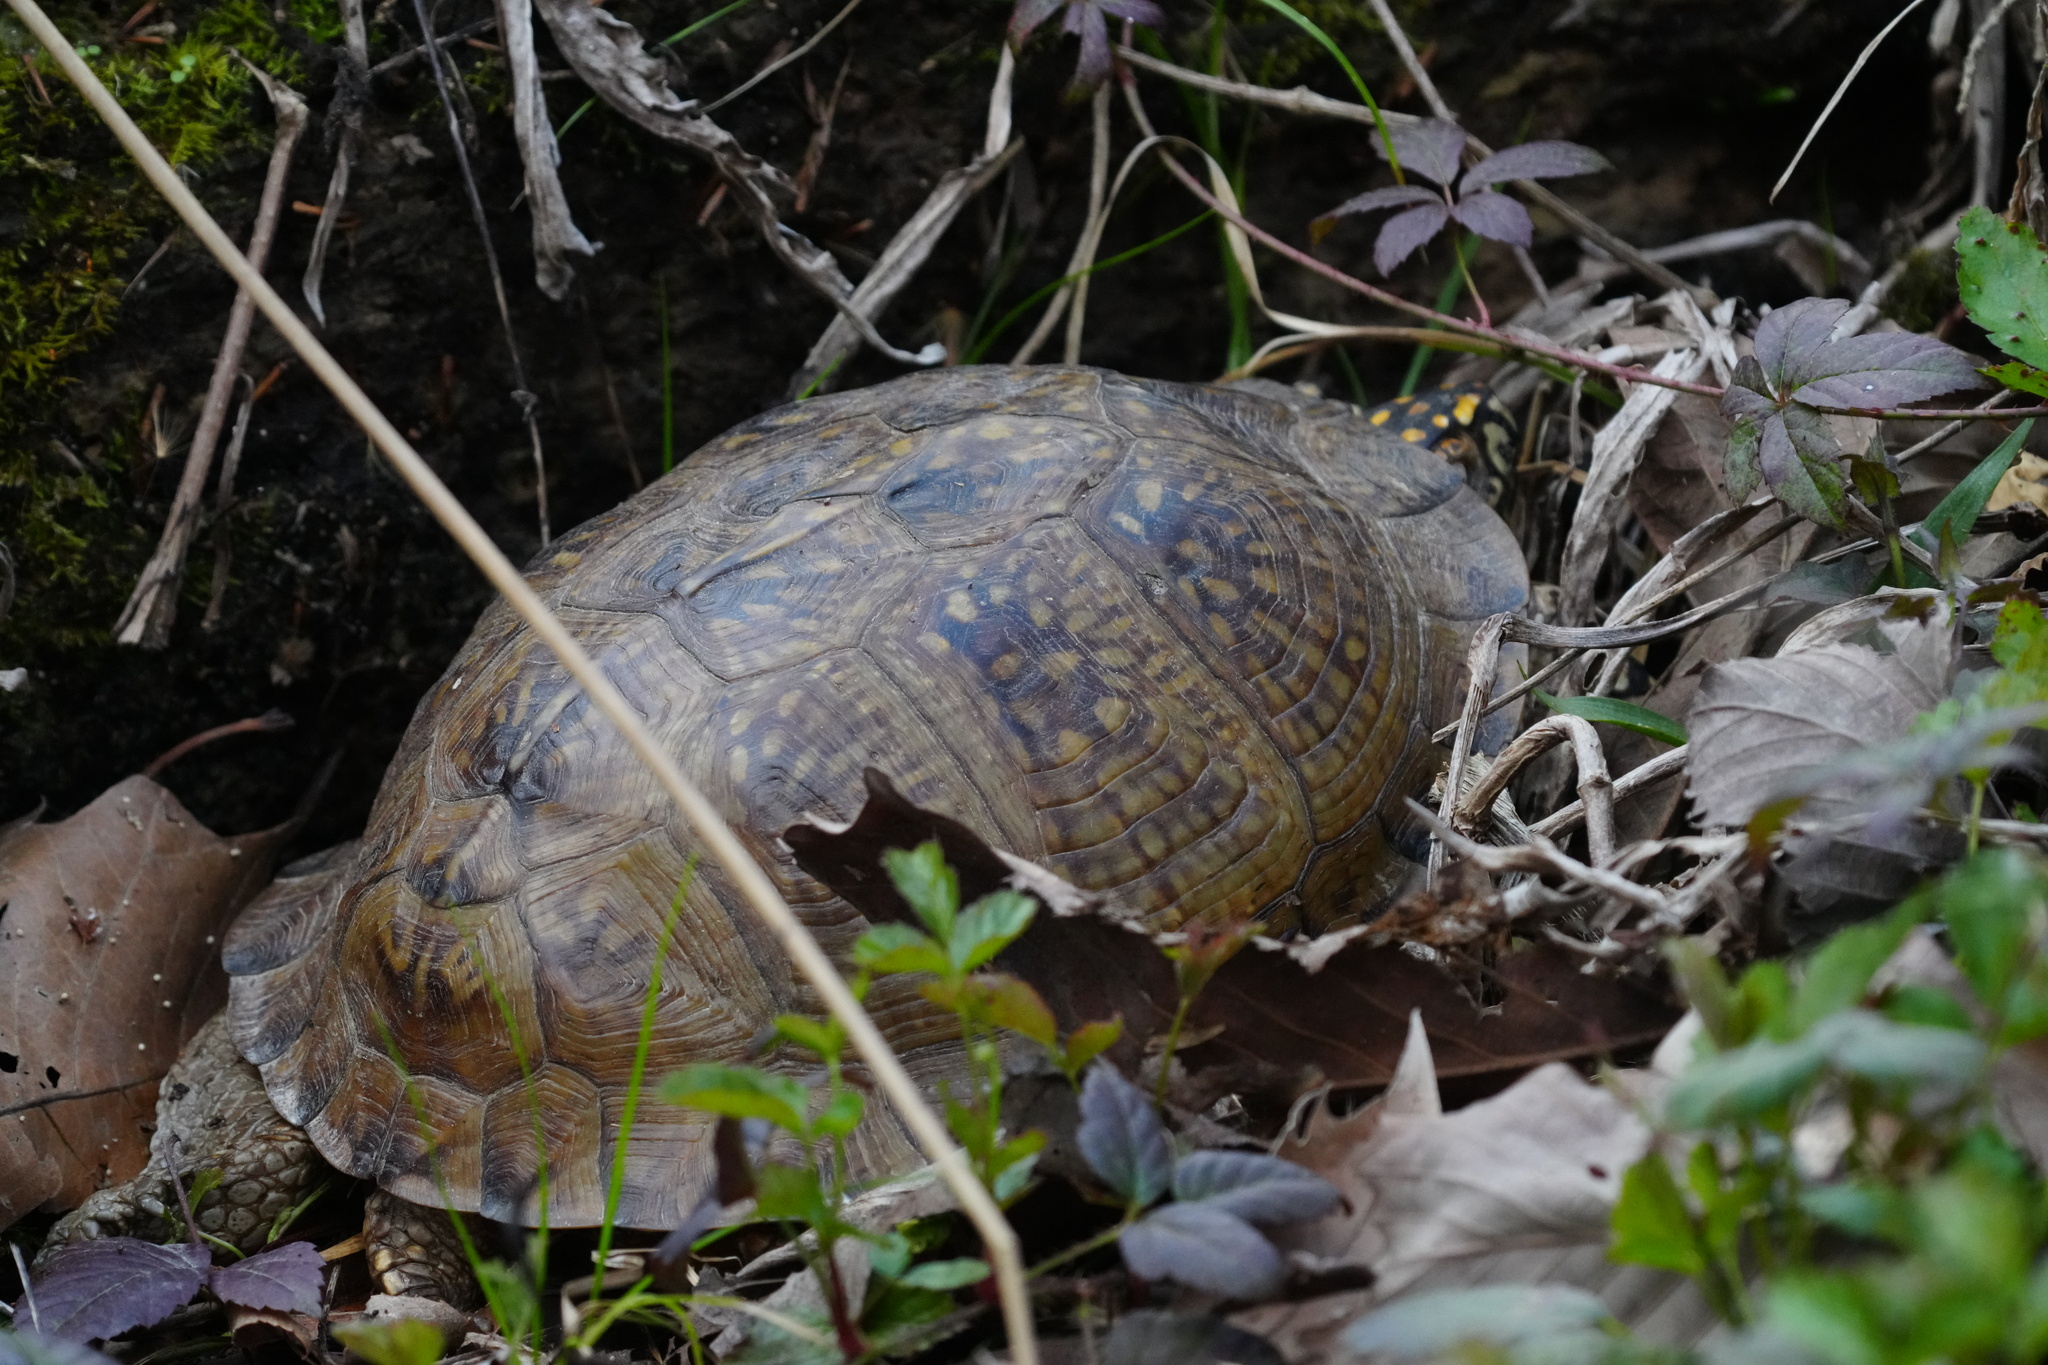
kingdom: Animalia
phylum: Chordata
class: Testudines
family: Emydidae
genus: Terrapene
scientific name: Terrapene carolina
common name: Common box turtle
